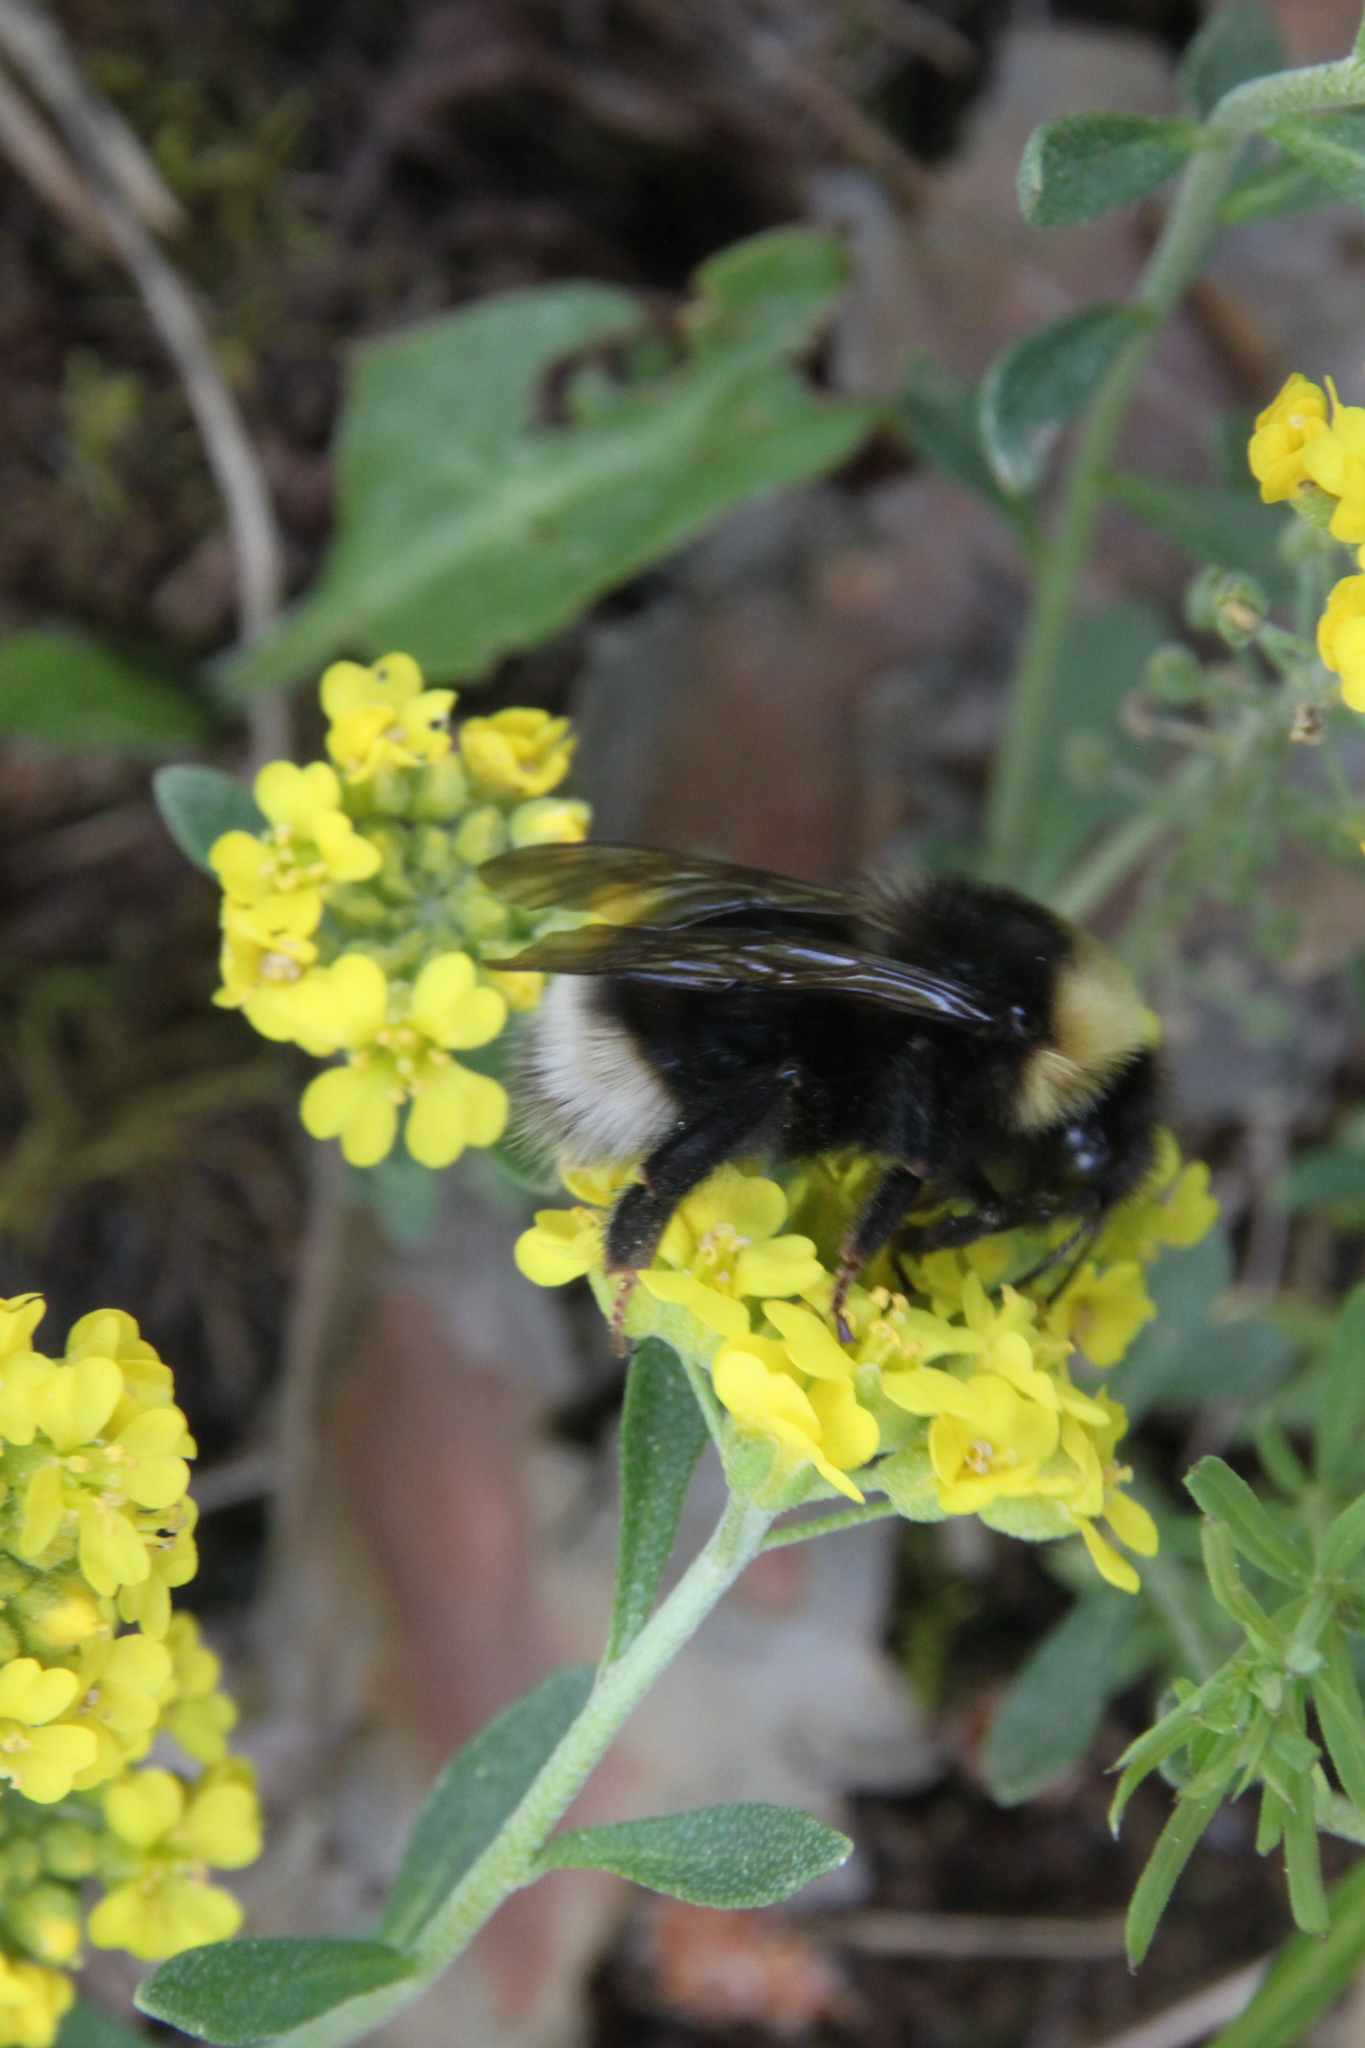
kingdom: Animalia
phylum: Arthropoda
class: Insecta
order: Hymenoptera
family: Apidae
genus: Bombus
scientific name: Bombus bohemicus
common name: Gypsy cuckoo bee
